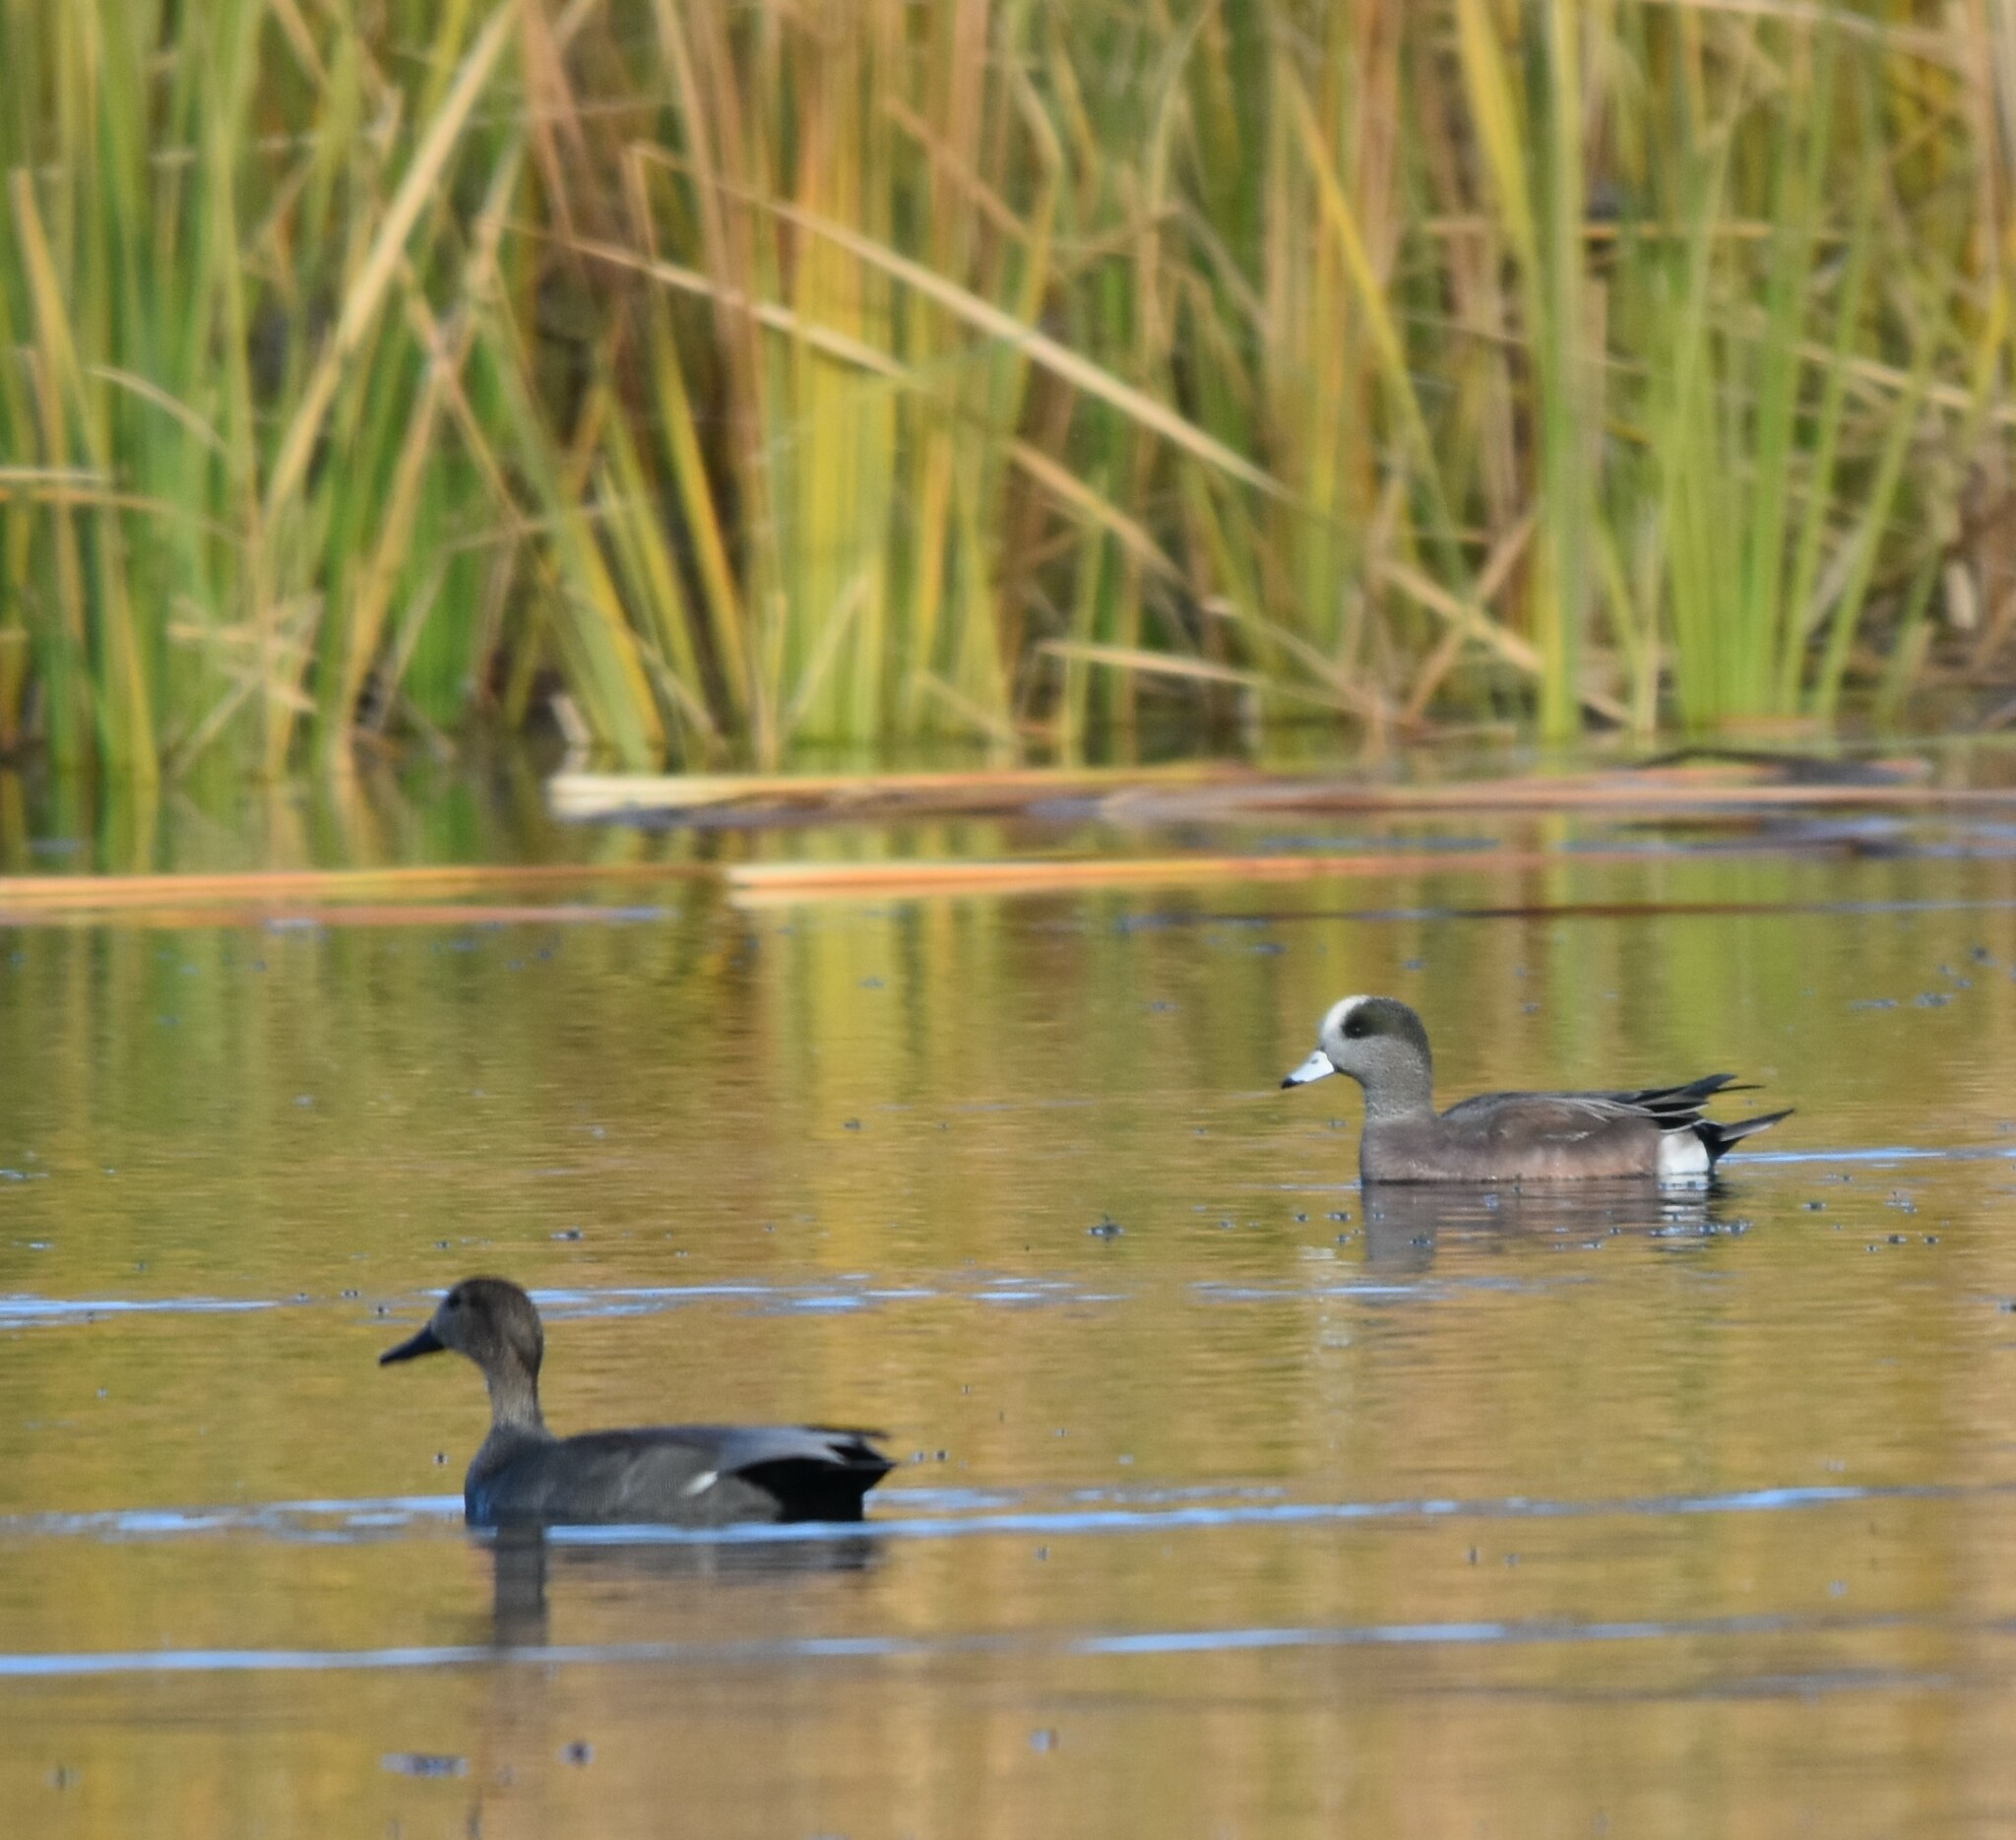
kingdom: Animalia
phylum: Chordata
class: Aves
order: Anseriformes
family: Anatidae
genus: Mareca
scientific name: Mareca americana
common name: American wigeon
